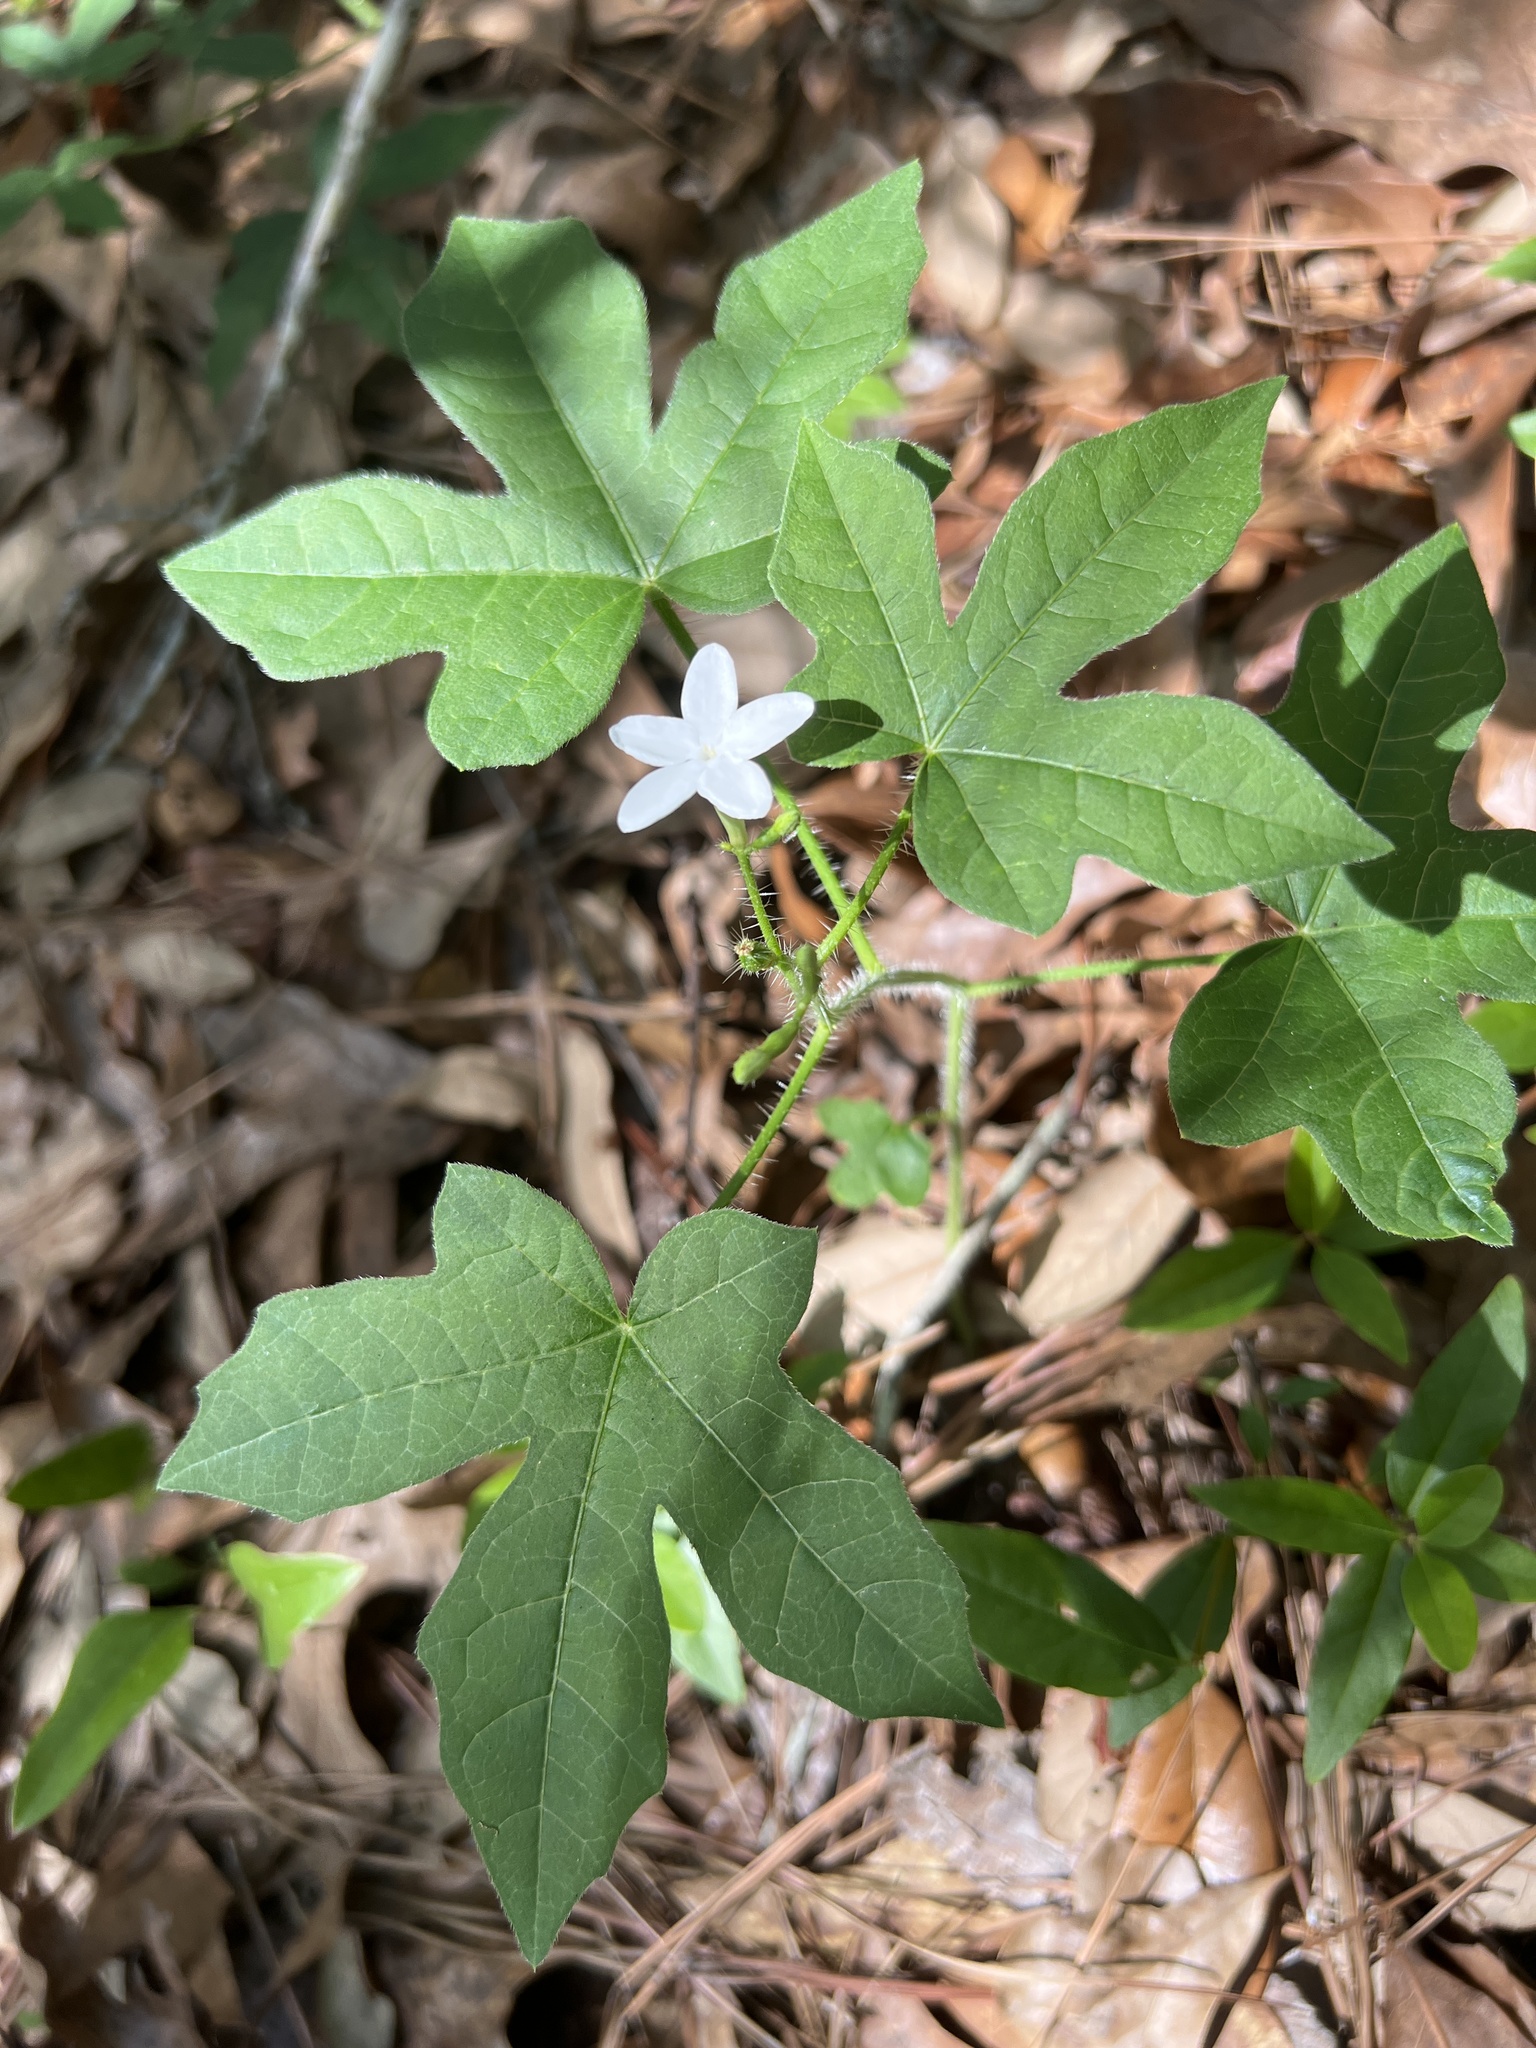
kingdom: Plantae
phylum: Tracheophyta
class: Magnoliopsida
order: Malpighiales
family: Euphorbiaceae
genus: Cnidoscolus
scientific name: Cnidoscolus stimulosus
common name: Bull-nettle
